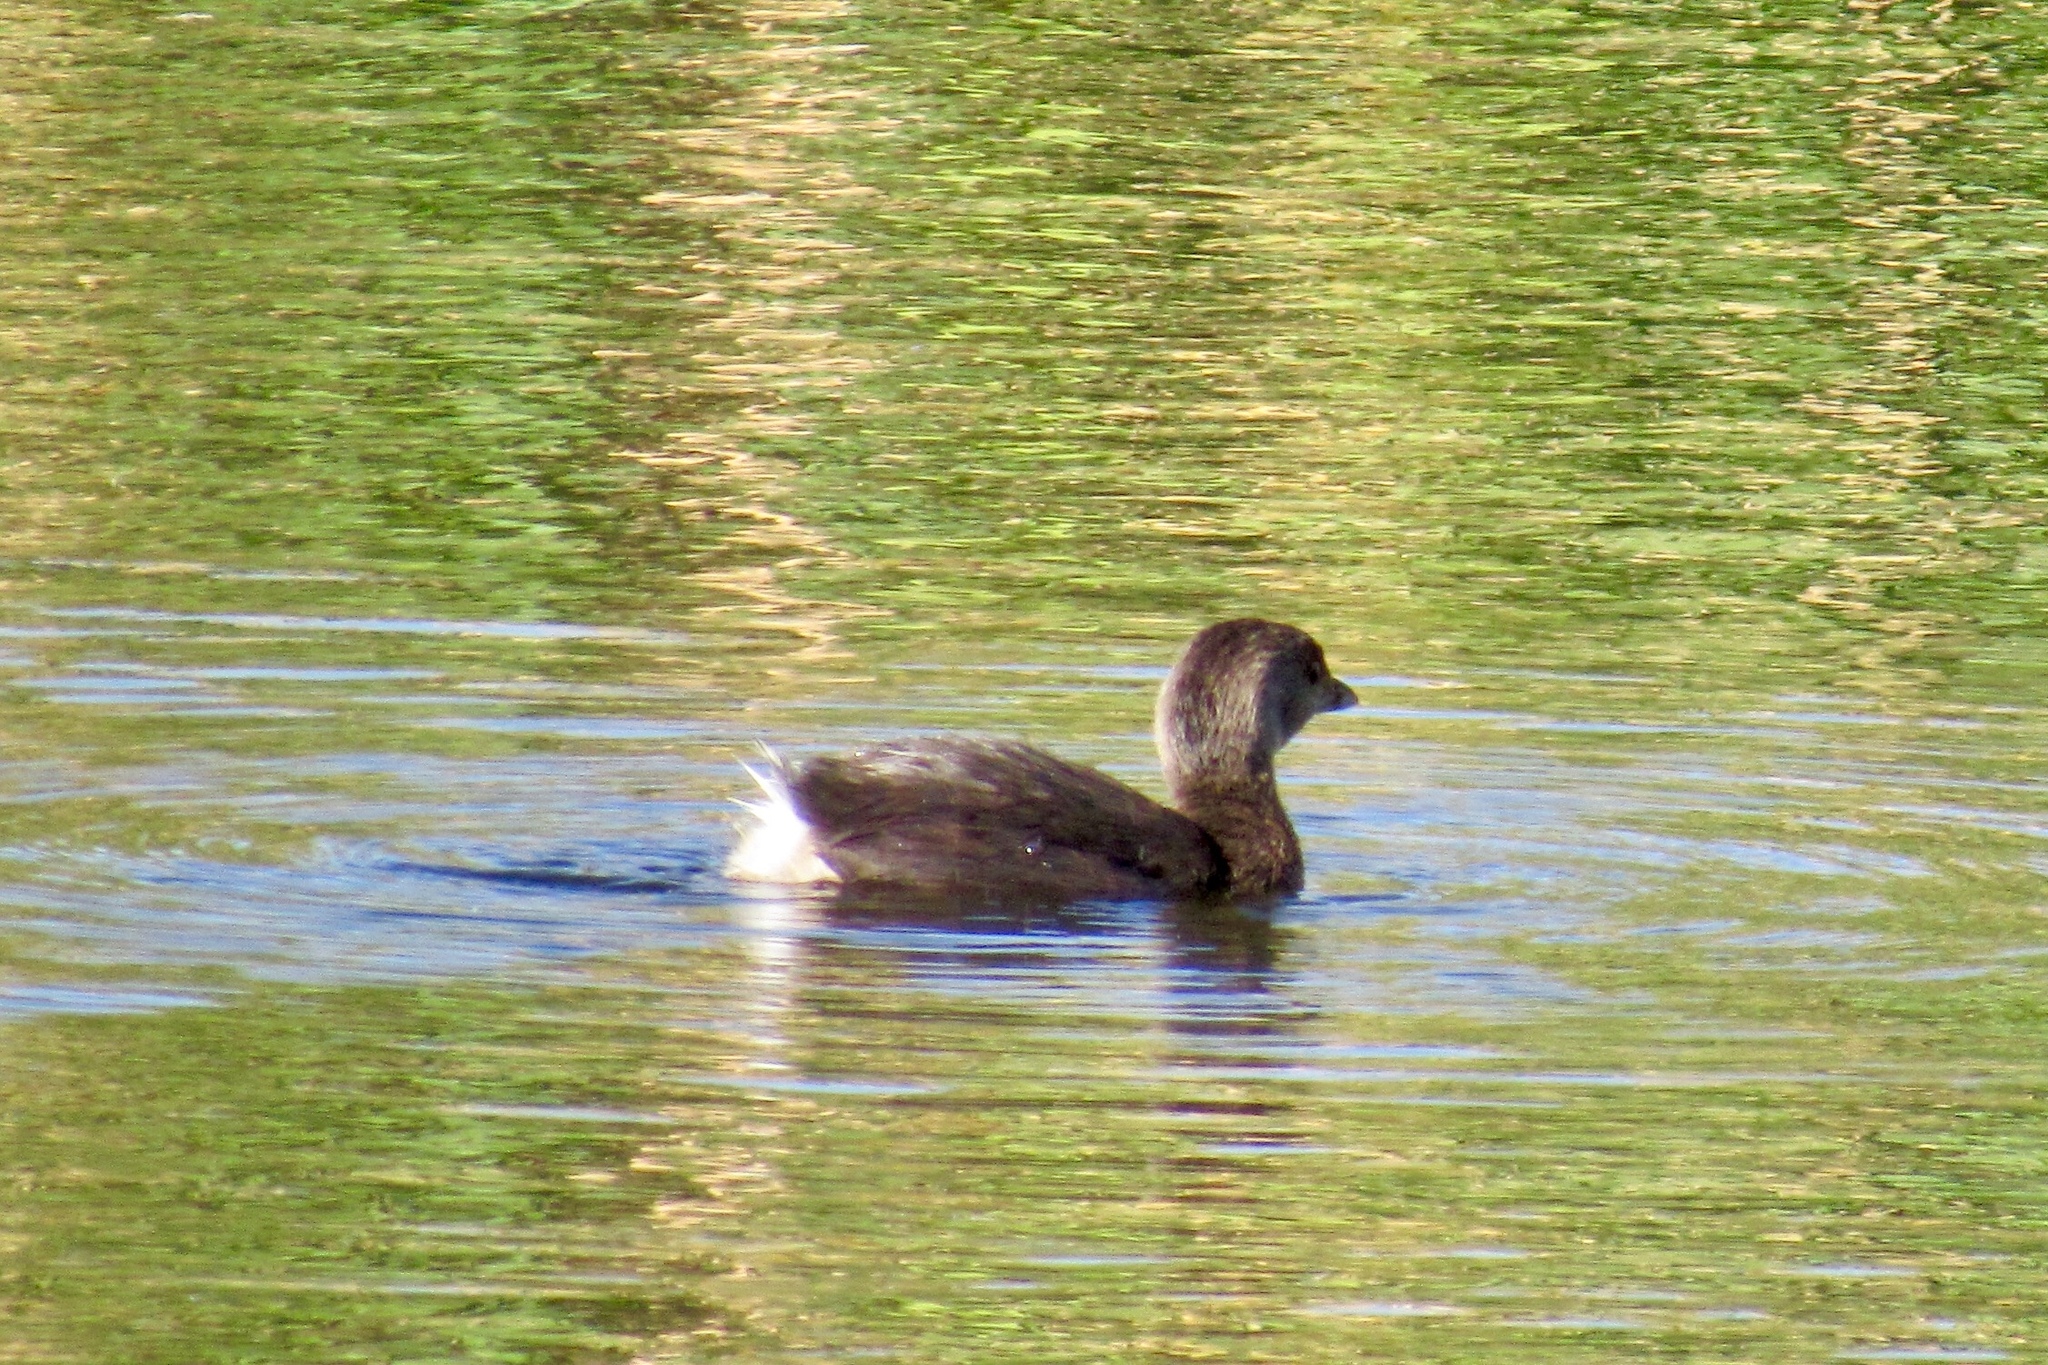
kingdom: Animalia
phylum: Chordata
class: Aves
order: Podicipediformes
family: Podicipedidae
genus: Podilymbus
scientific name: Podilymbus podiceps
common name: Pied-billed grebe
